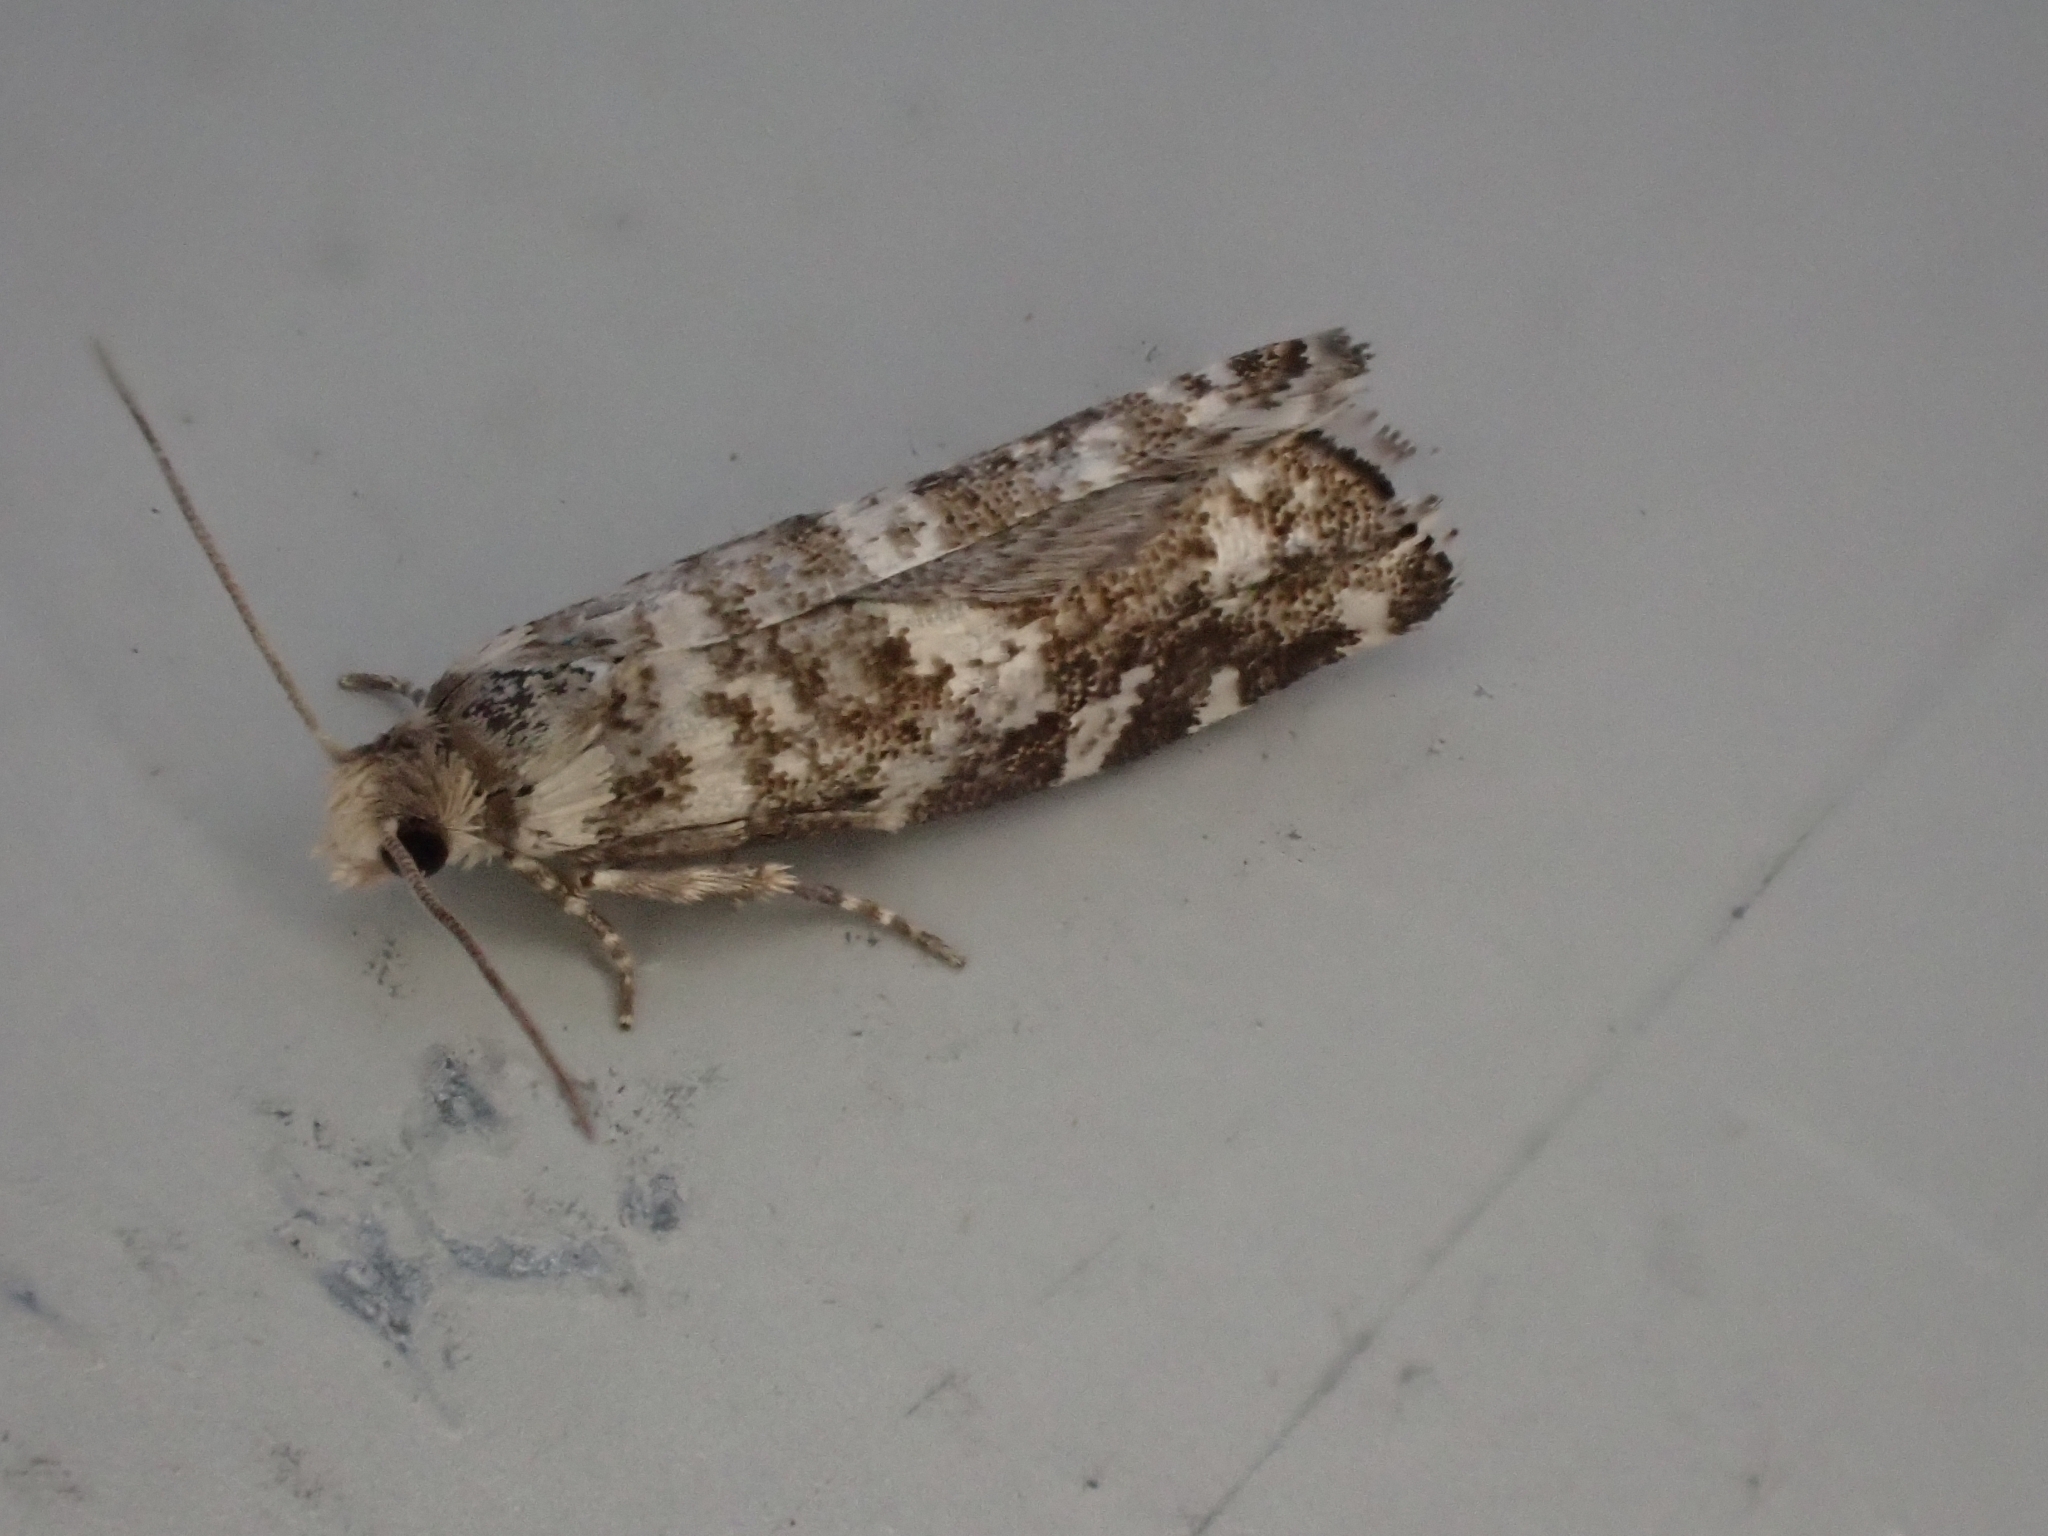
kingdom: Animalia
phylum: Arthropoda
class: Insecta
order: Lepidoptera
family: Tortricidae
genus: Epinotia
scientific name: Epinotia tedella
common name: Common spruce bell
